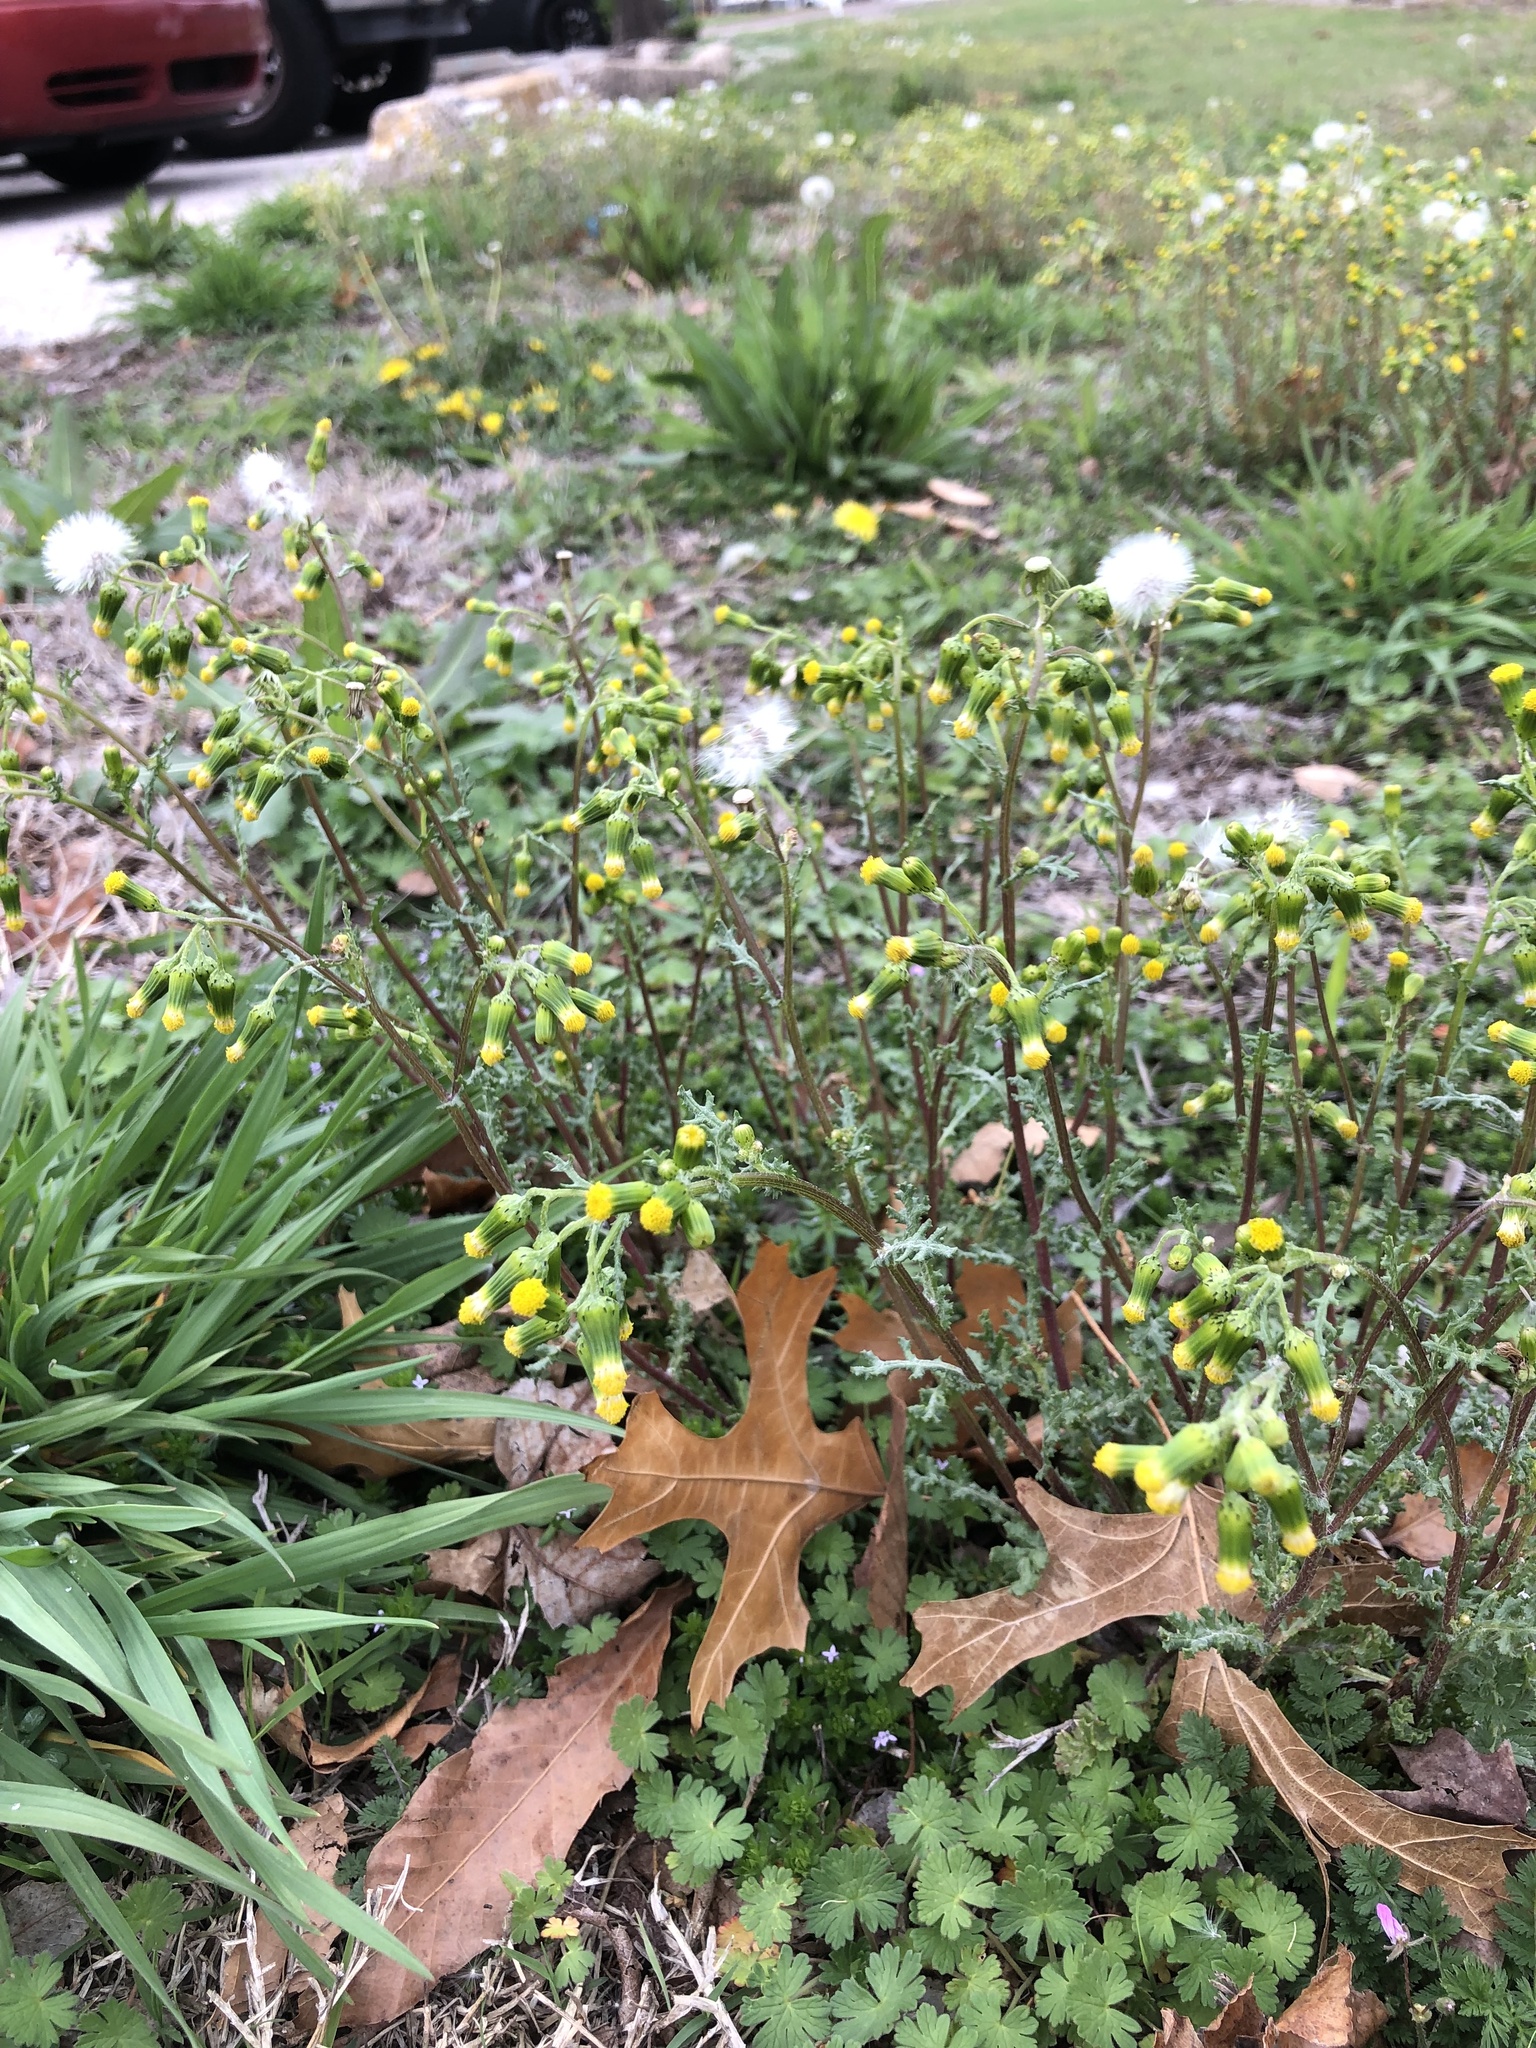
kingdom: Plantae
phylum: Tracheophyta
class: Magnoliopsida
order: Asterales
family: Asteraceae
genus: Senecio
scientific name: Senecio vulgaris
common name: Old-man-in-the-spring
